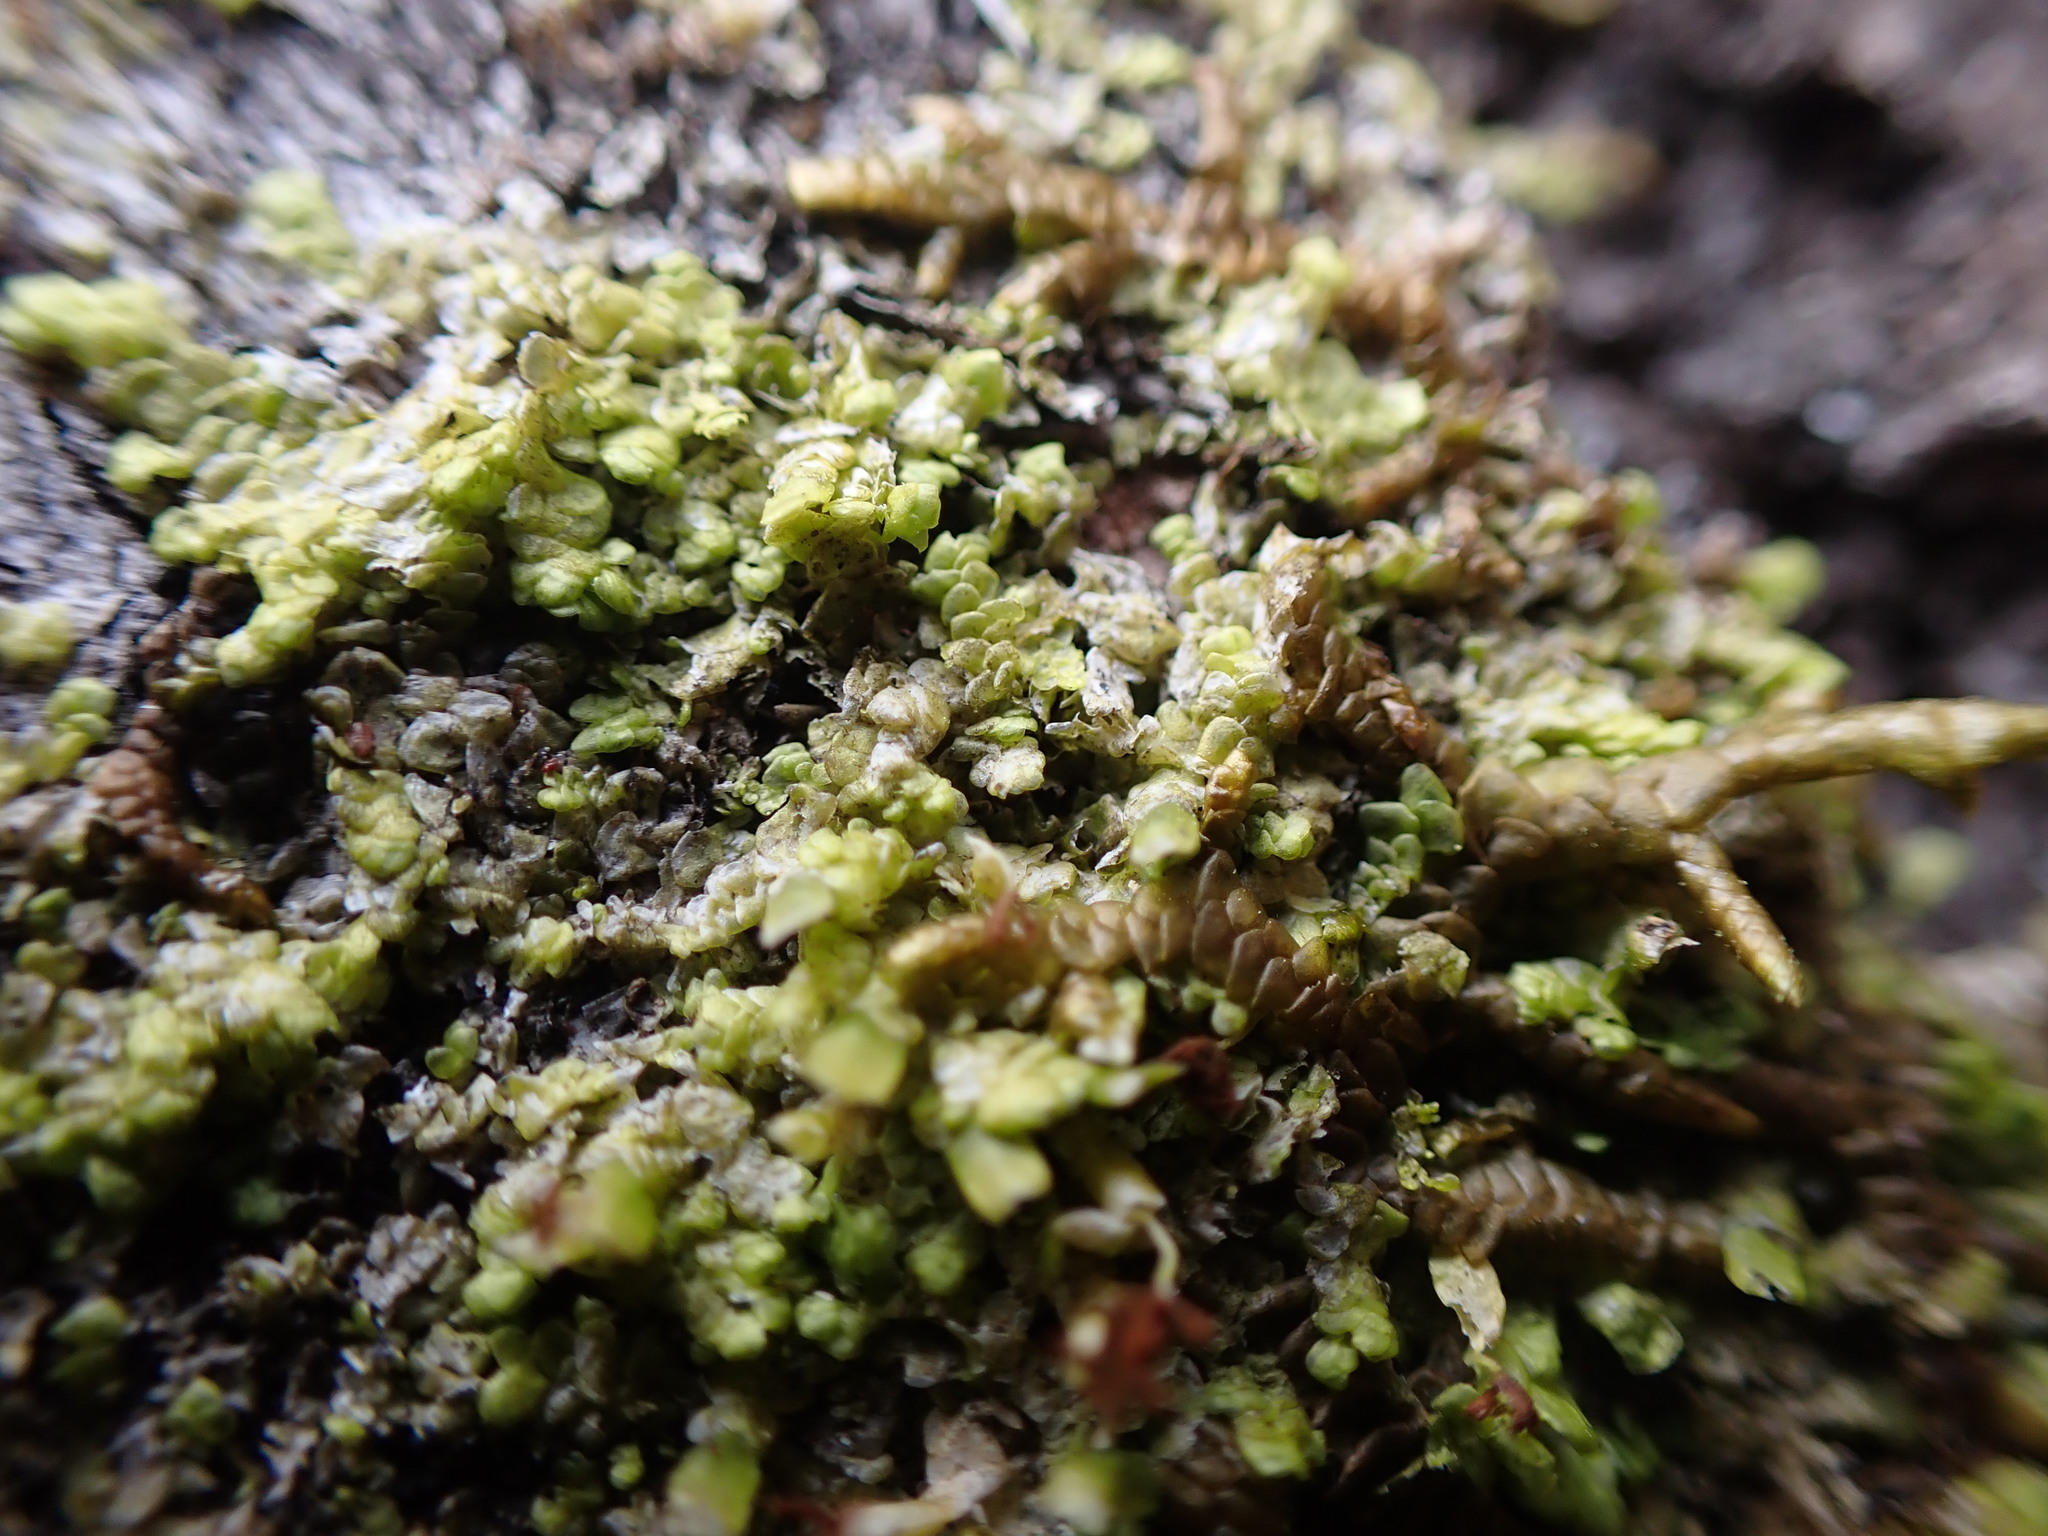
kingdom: Plantae
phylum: Marchantiophyta
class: Jungermanniopsida
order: Porellales
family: Radulaceae
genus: Radula
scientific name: Radula complanata
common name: Flat-leaved scalewort
